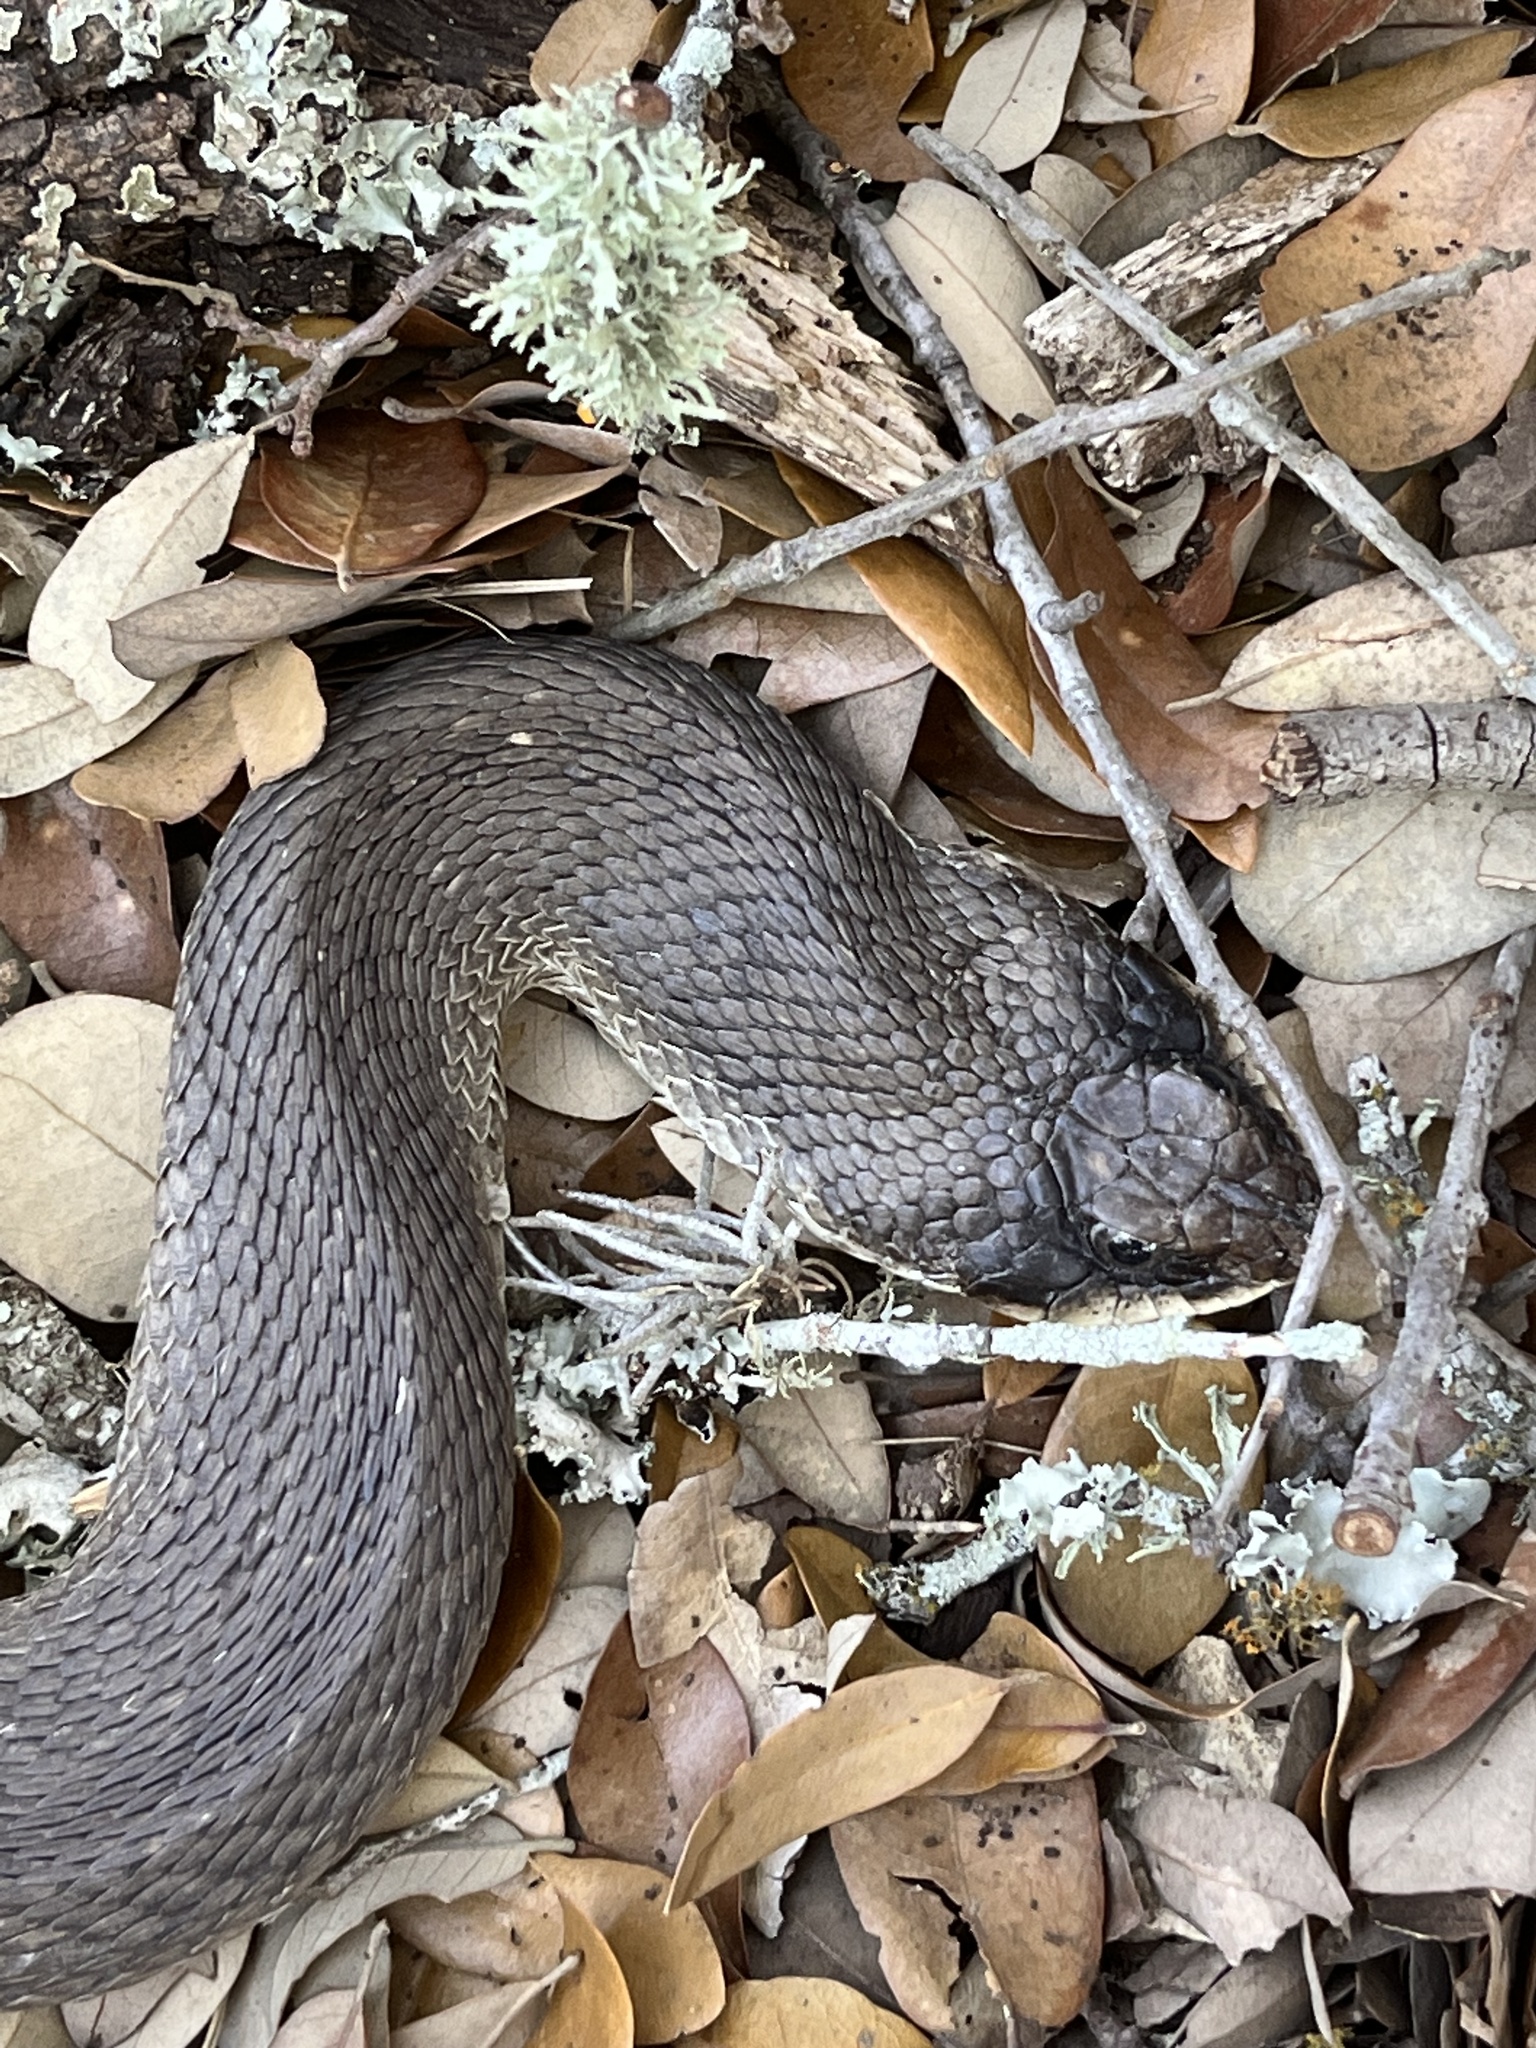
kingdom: Animalia
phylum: Chordata
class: Squamata
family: Colubridae
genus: Heterodon
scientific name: Heterodon platirhinos
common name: Eastern hognose snake
